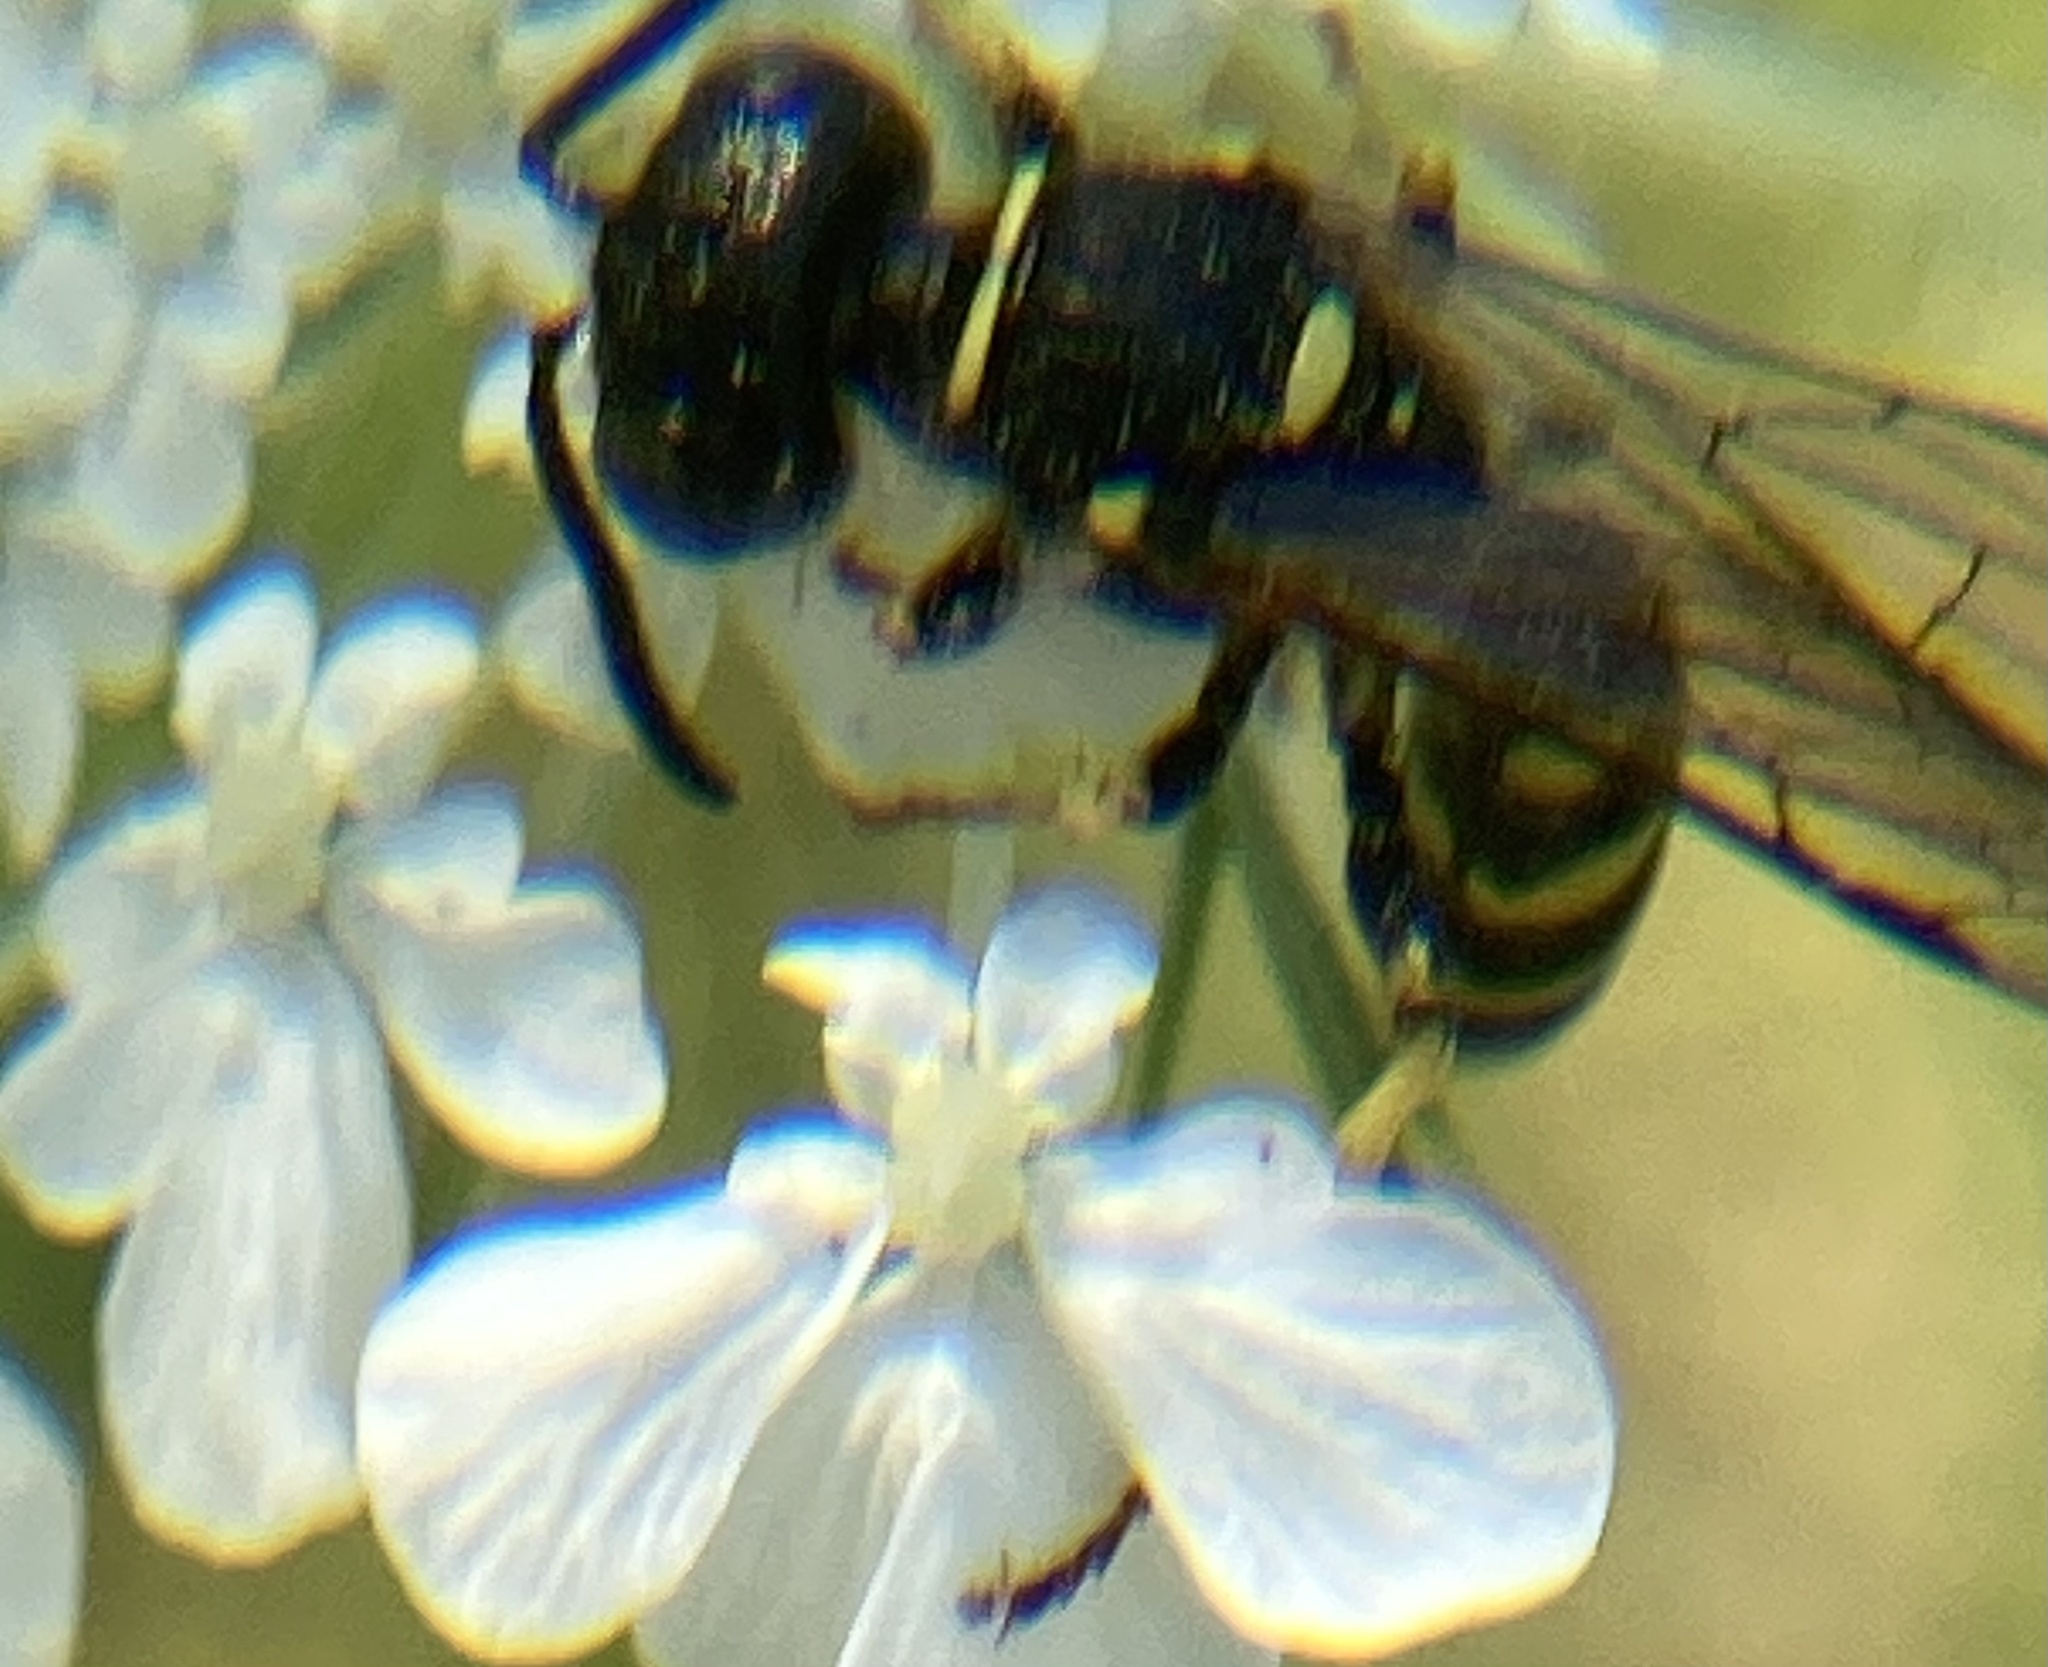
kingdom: Animalia
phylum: Arthropoda
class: Insecta
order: Hymenoptera
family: Crabronidae
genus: Aphilanthops
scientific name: Aphilanthops frigidus
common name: Queen ant kidnapper
